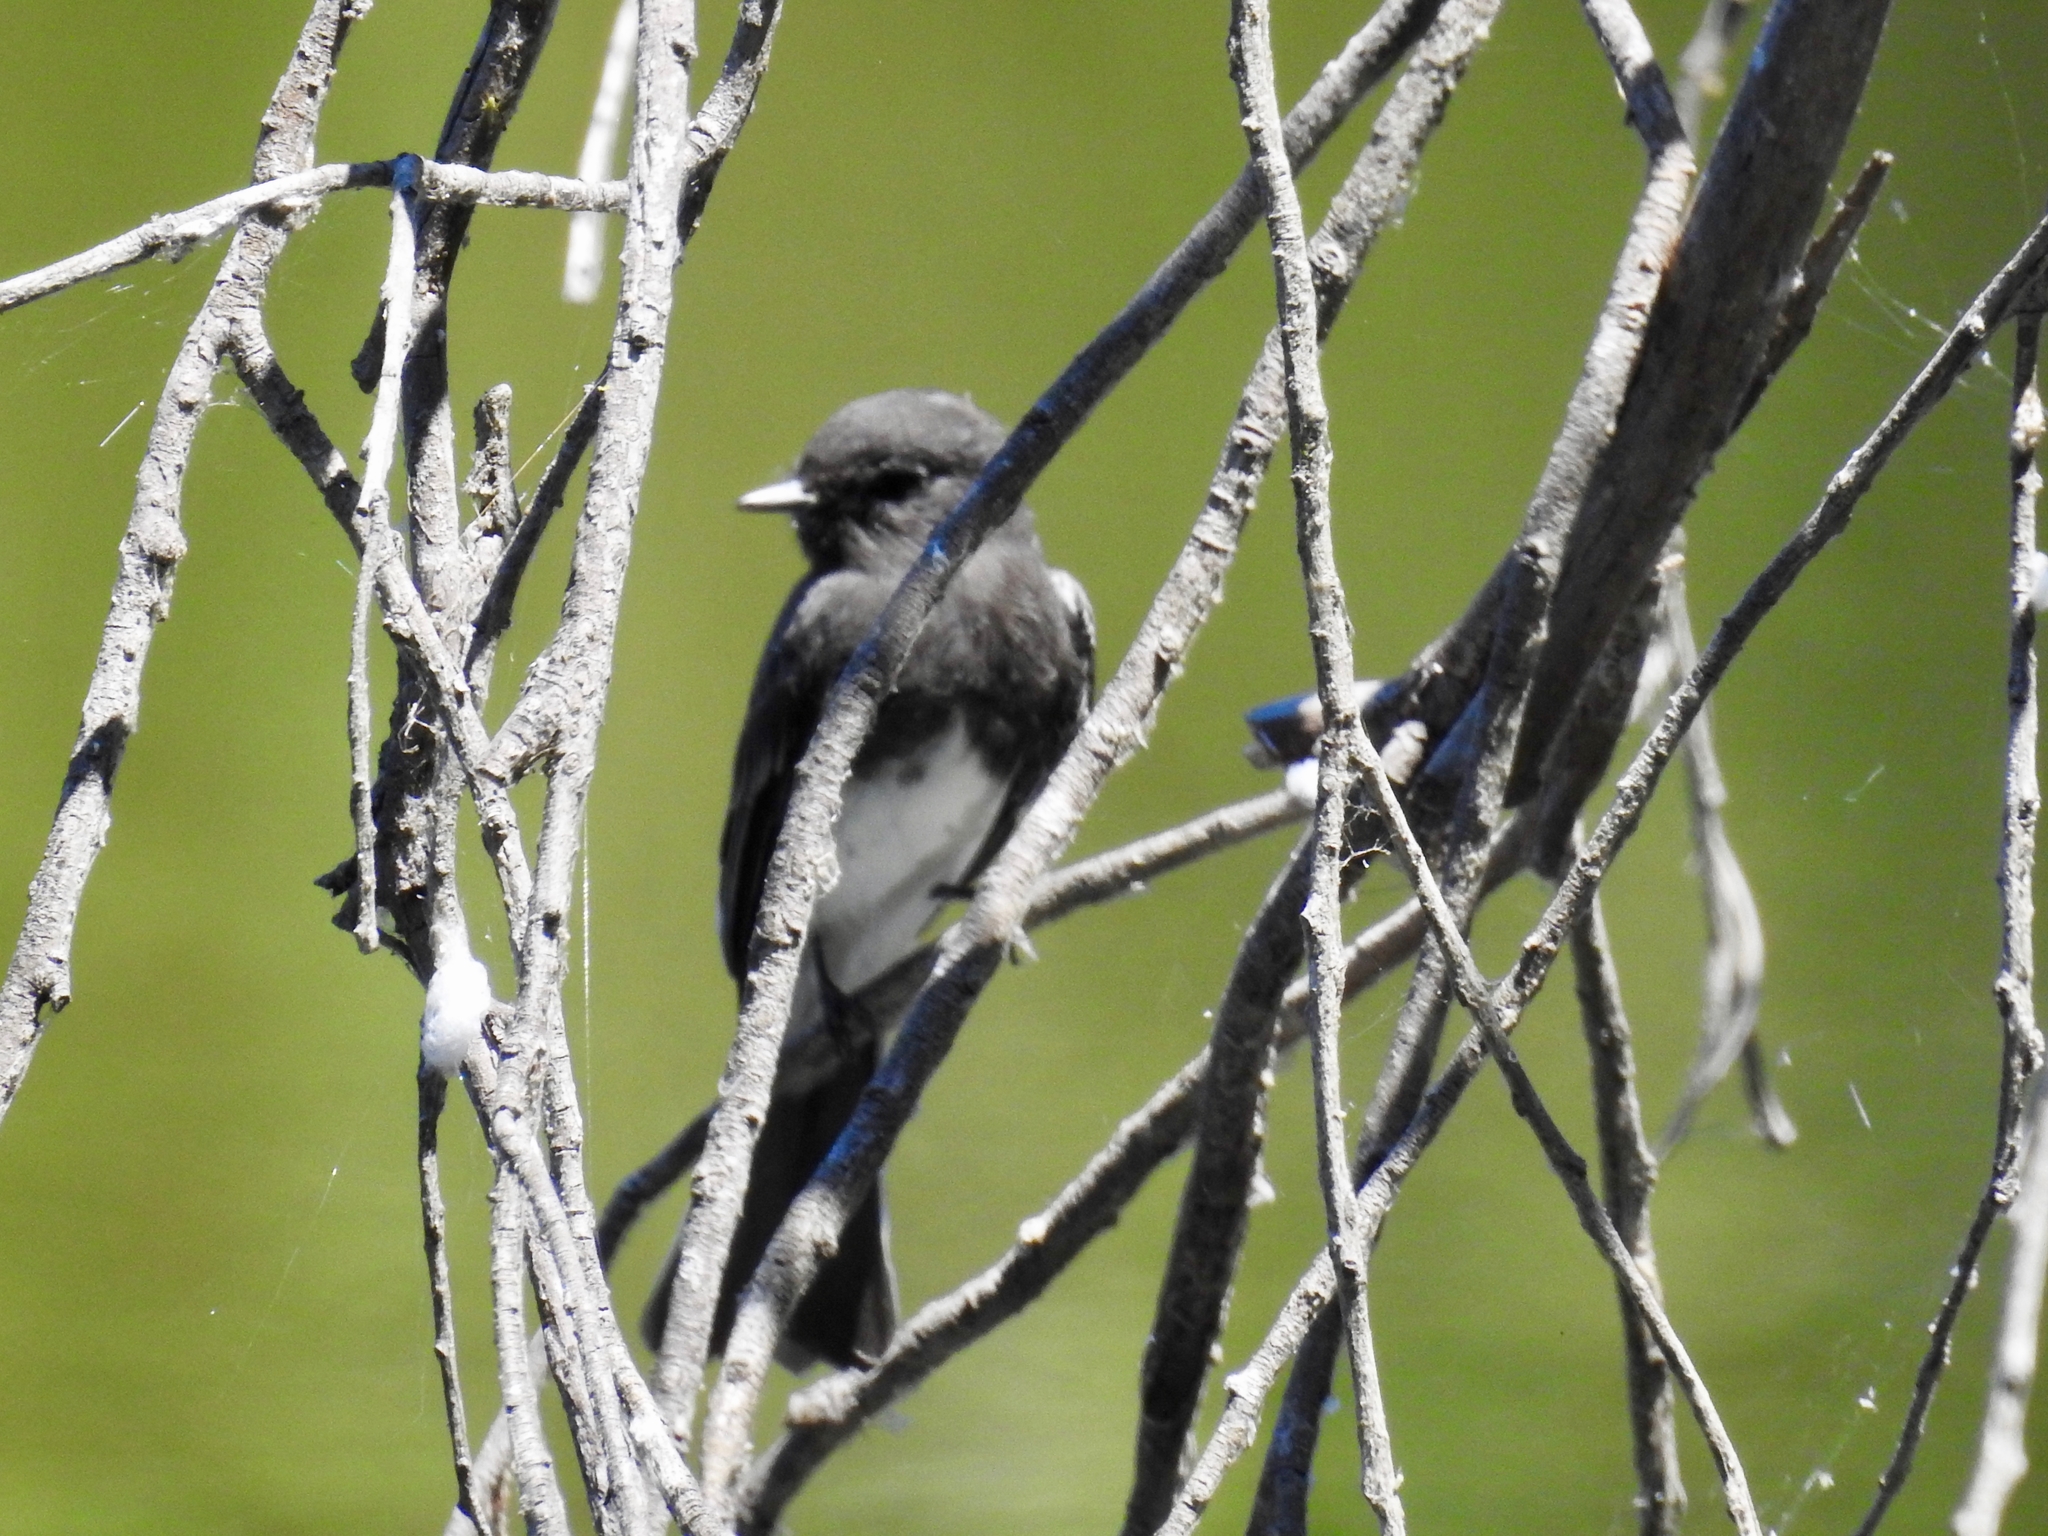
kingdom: Animalia
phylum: Chordata
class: Aves
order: Passeriformes
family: Tyrannidae
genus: Sayornis
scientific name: Sayornis nigricans
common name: Black phoebe
